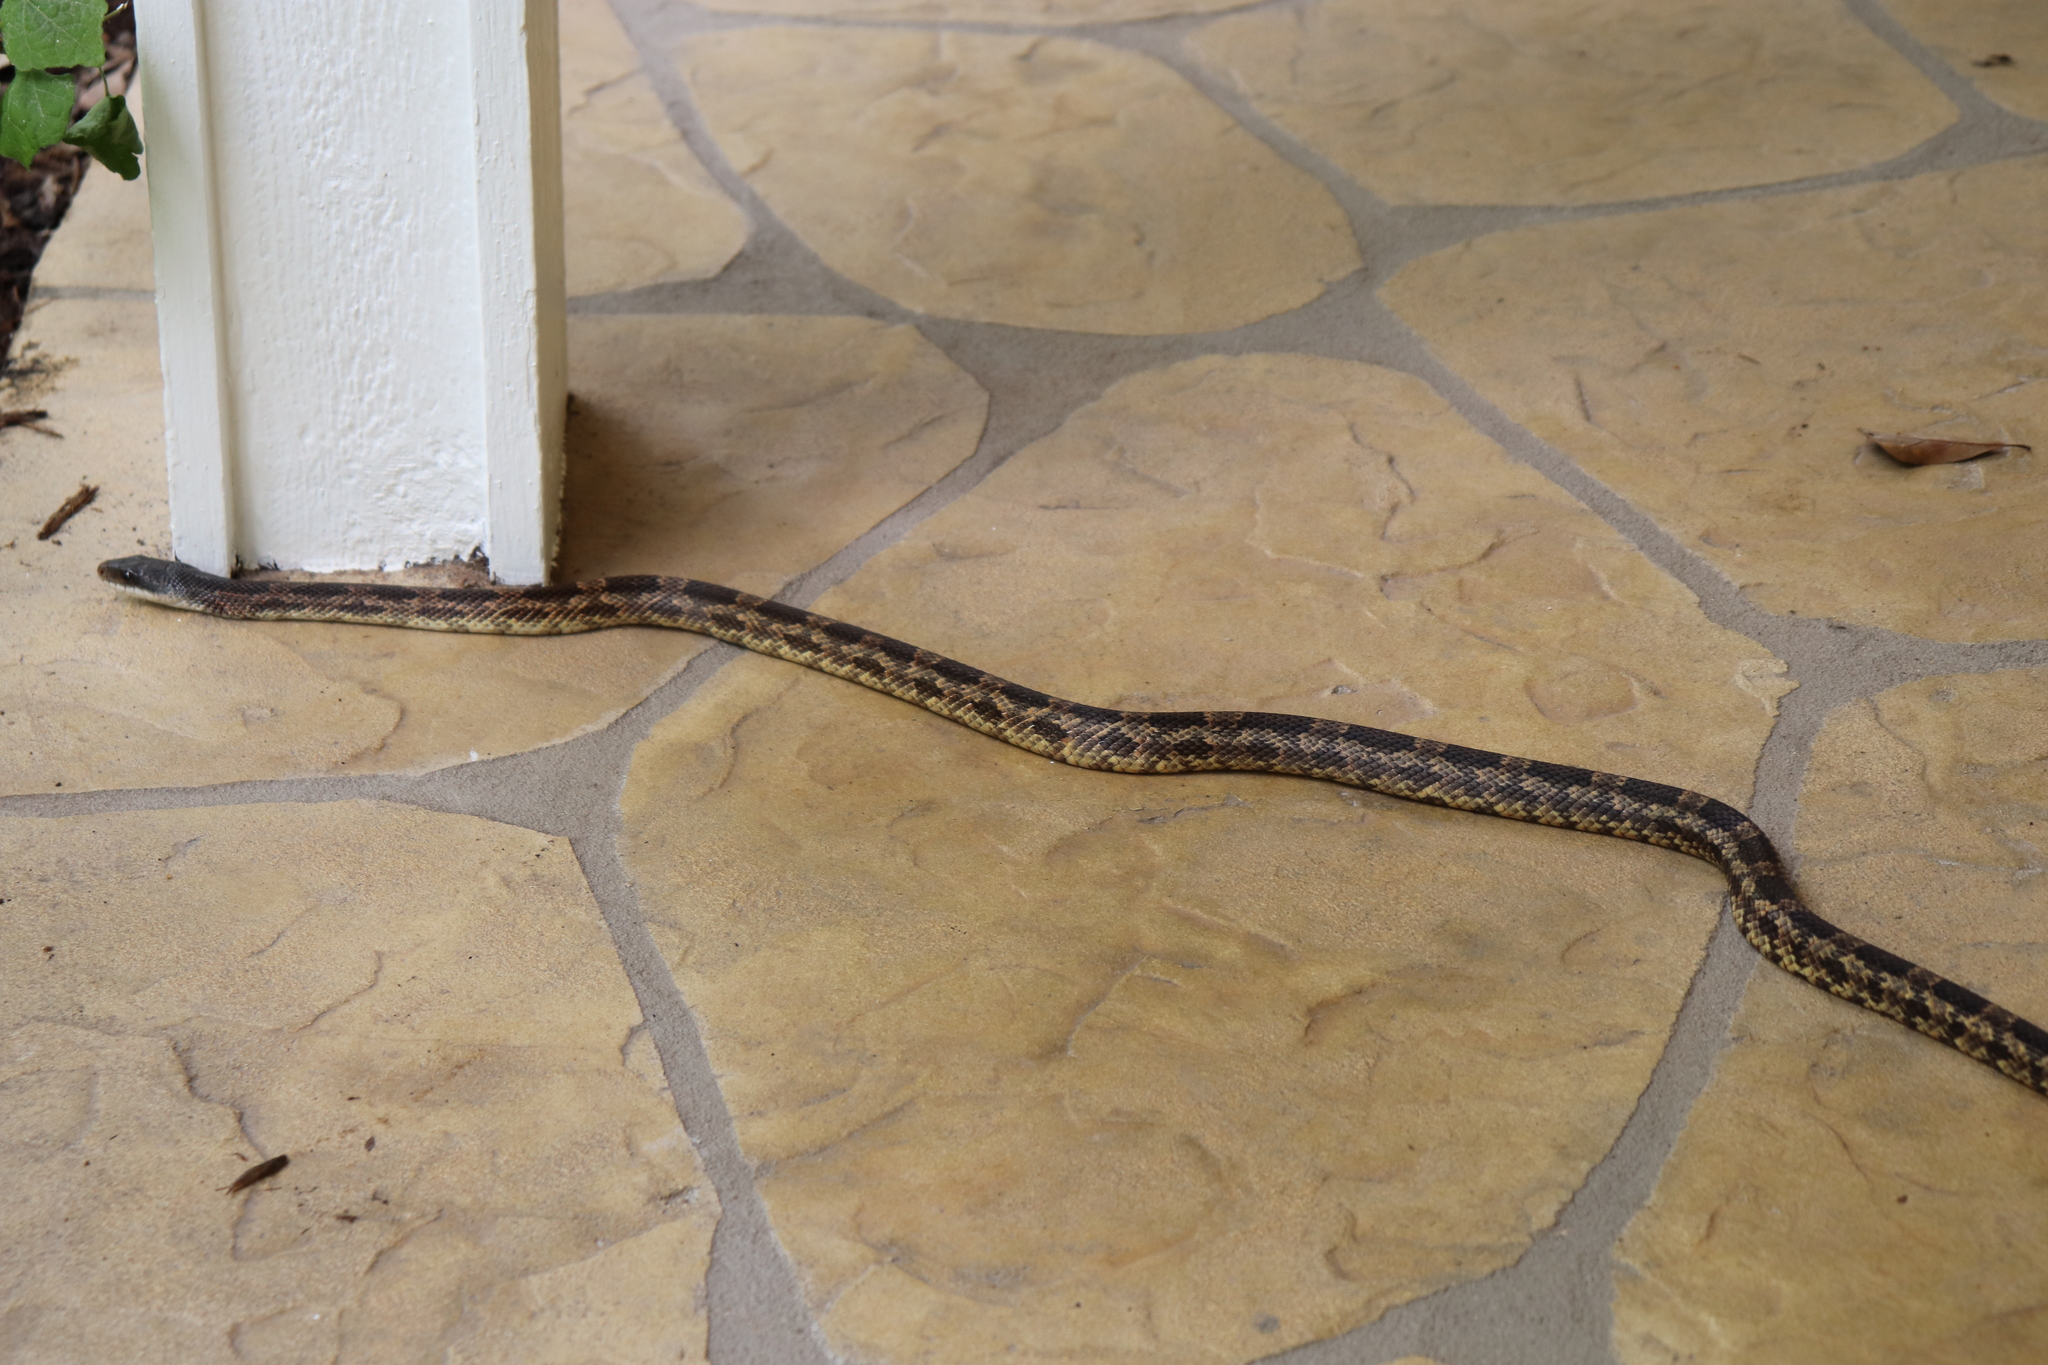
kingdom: Animalia
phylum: Chordata
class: Squamata
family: Colubridae
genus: Pantherophis
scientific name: Pantherophis obsoletus
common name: Black rat snake
